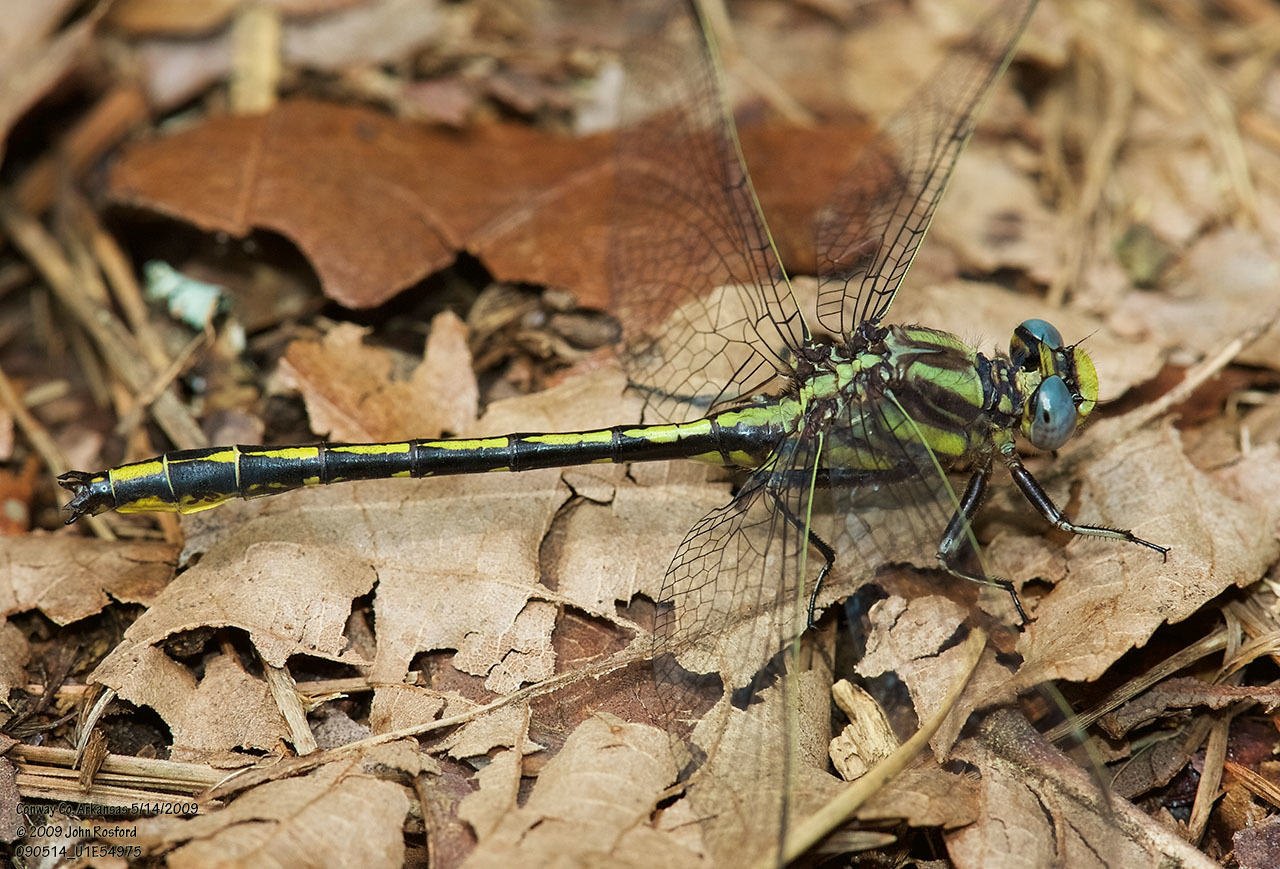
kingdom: Animalia
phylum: Arthropoda
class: Insecta
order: Odonata
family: Gomphidae
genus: Phanogomphus
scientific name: Phanogomphus oklahomensis
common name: Oklahoma clubtail
